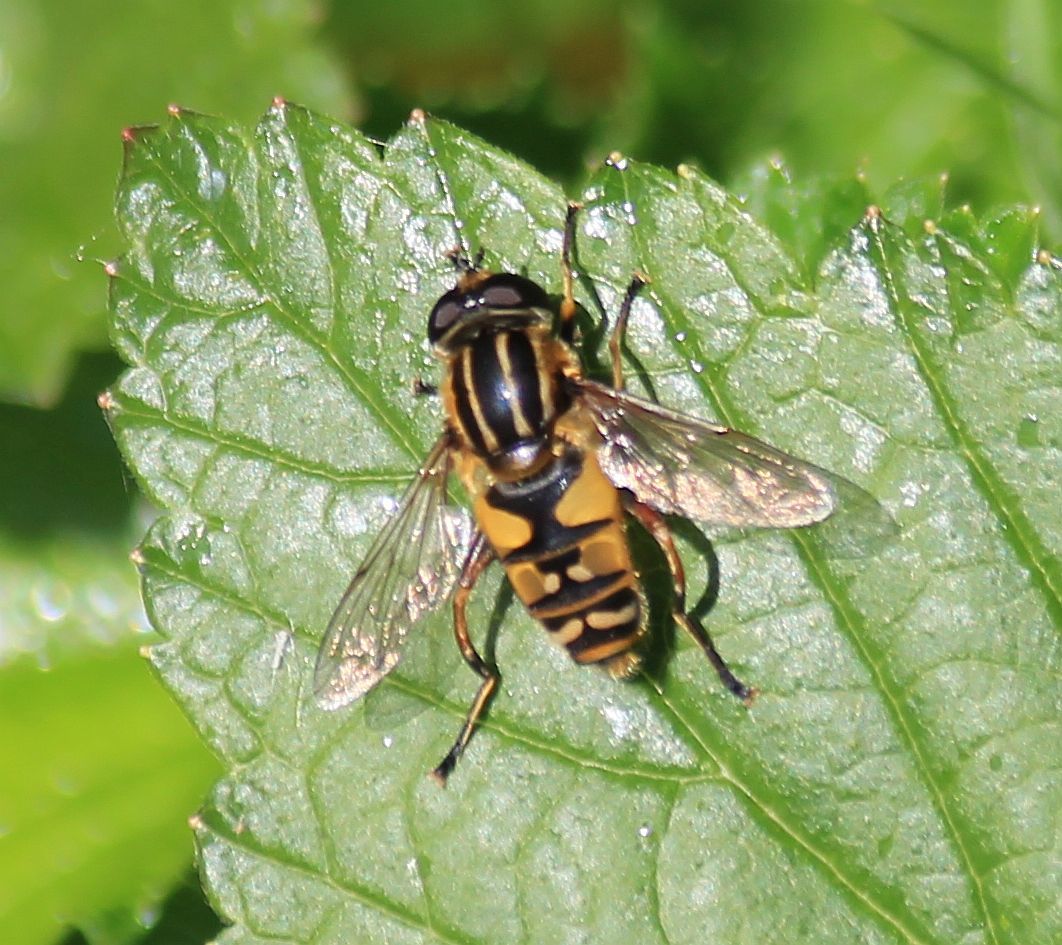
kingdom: Animalia
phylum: Arthropoda
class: Insecta
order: Diptera
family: Syrphidae
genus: Helophilus
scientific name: Helophilus pendulus
